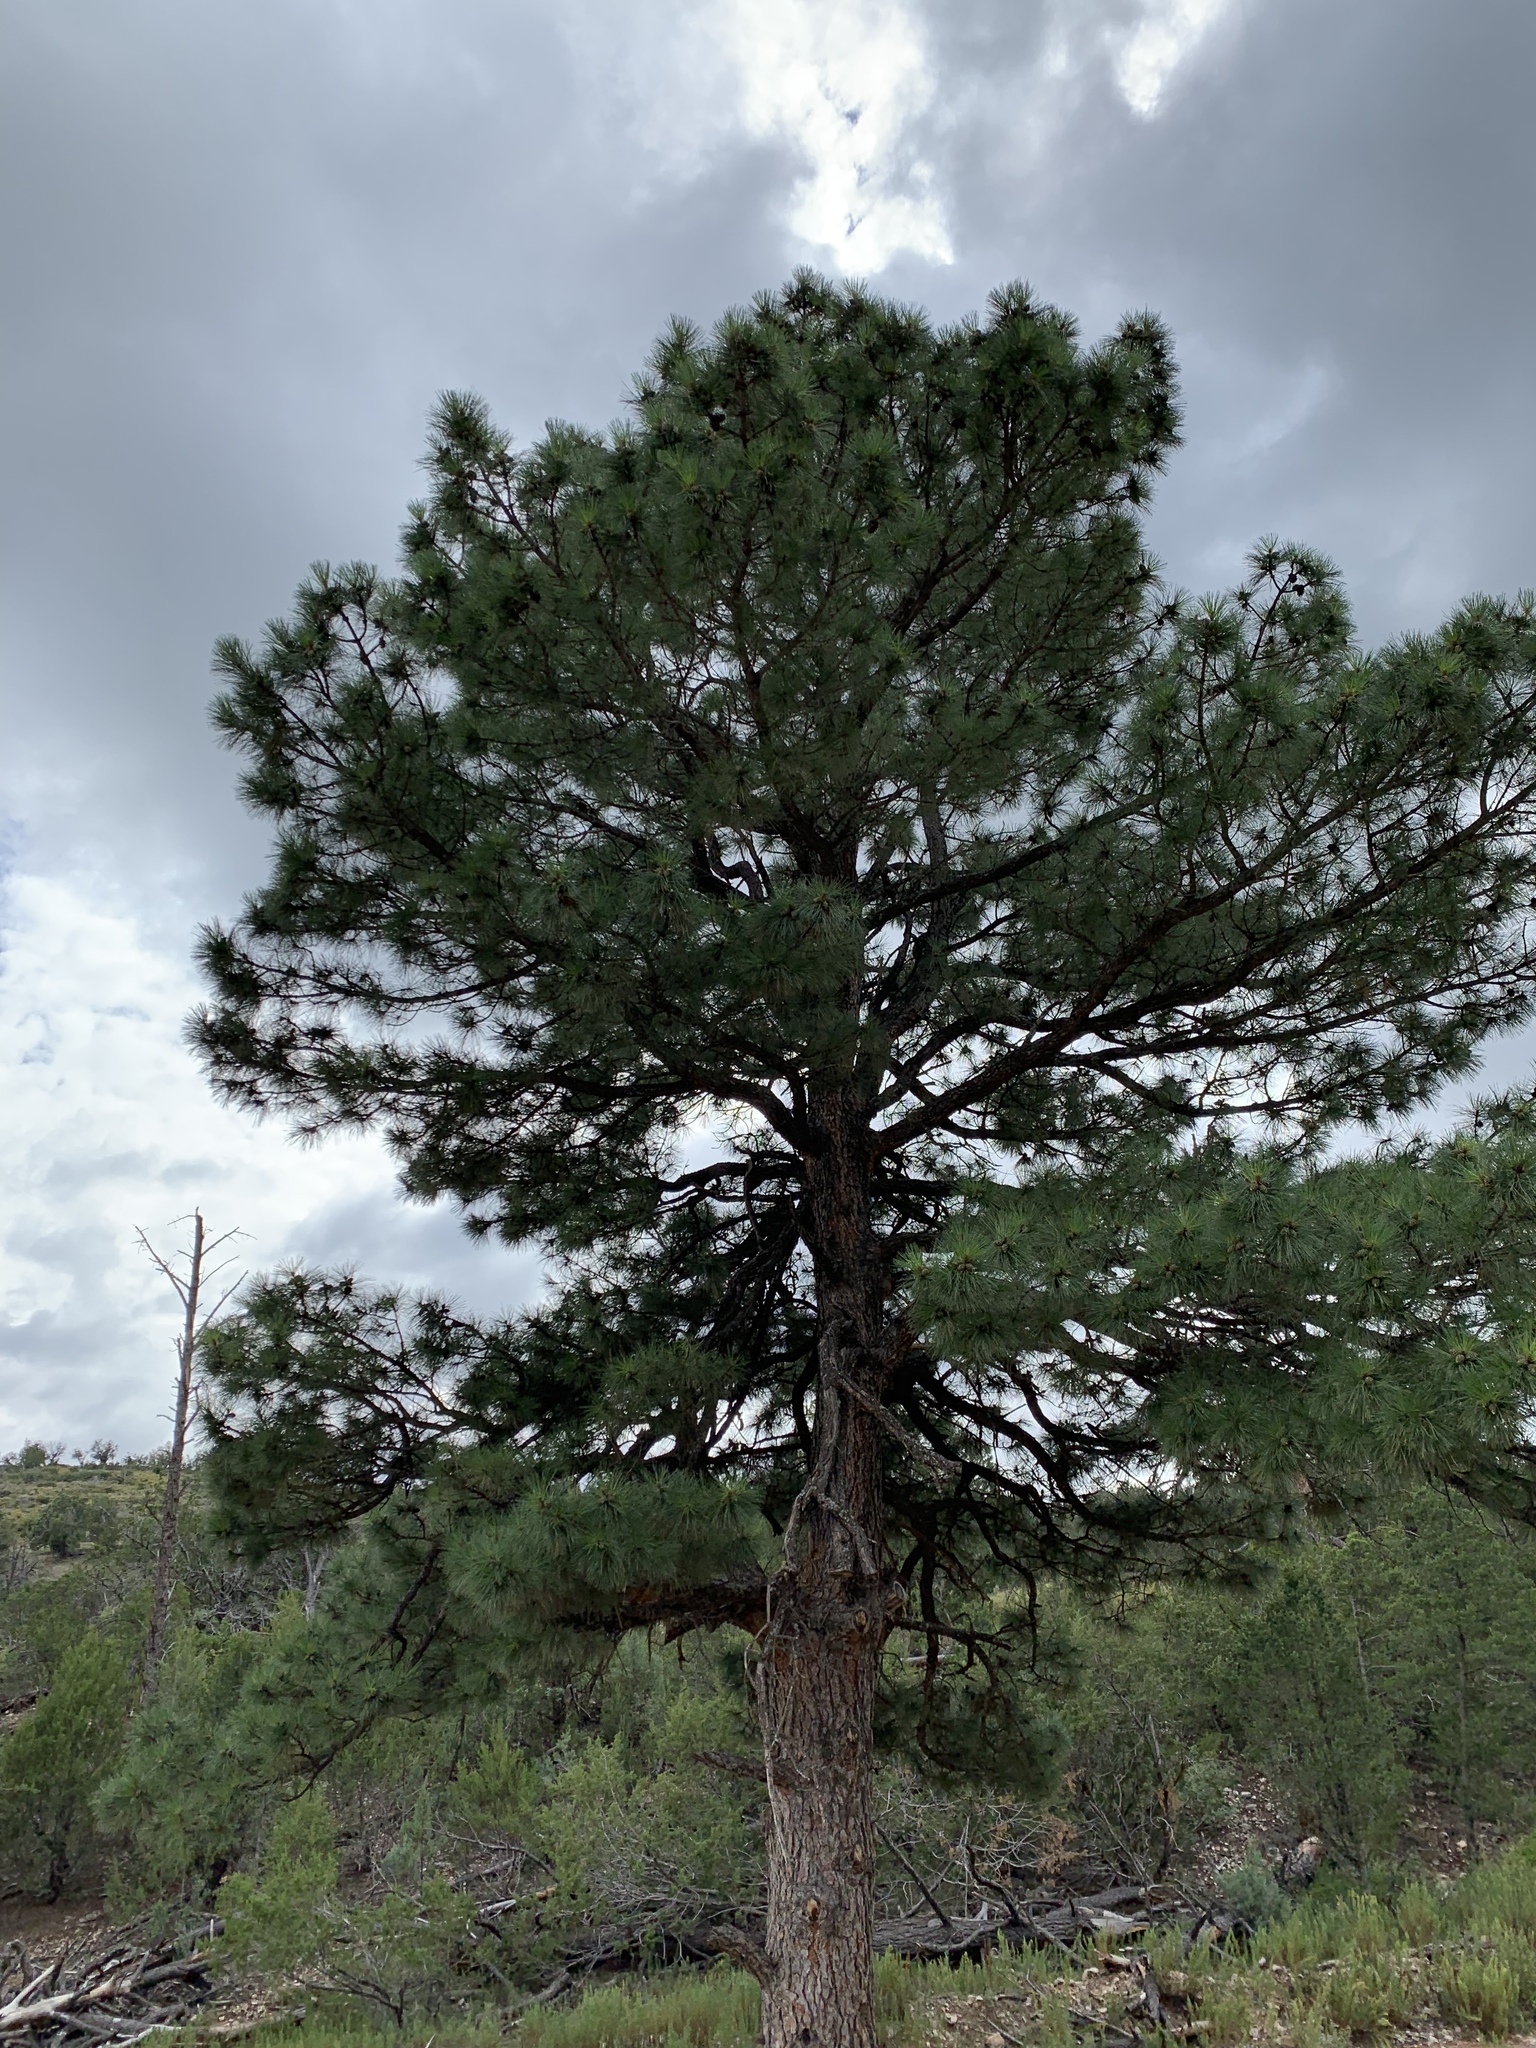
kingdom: Plantae
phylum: Tracheophyta
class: Pinopsida
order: Pinales
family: Pinaceae
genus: Pinus
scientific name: Pinus ponderosa
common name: Western yellow-pine
